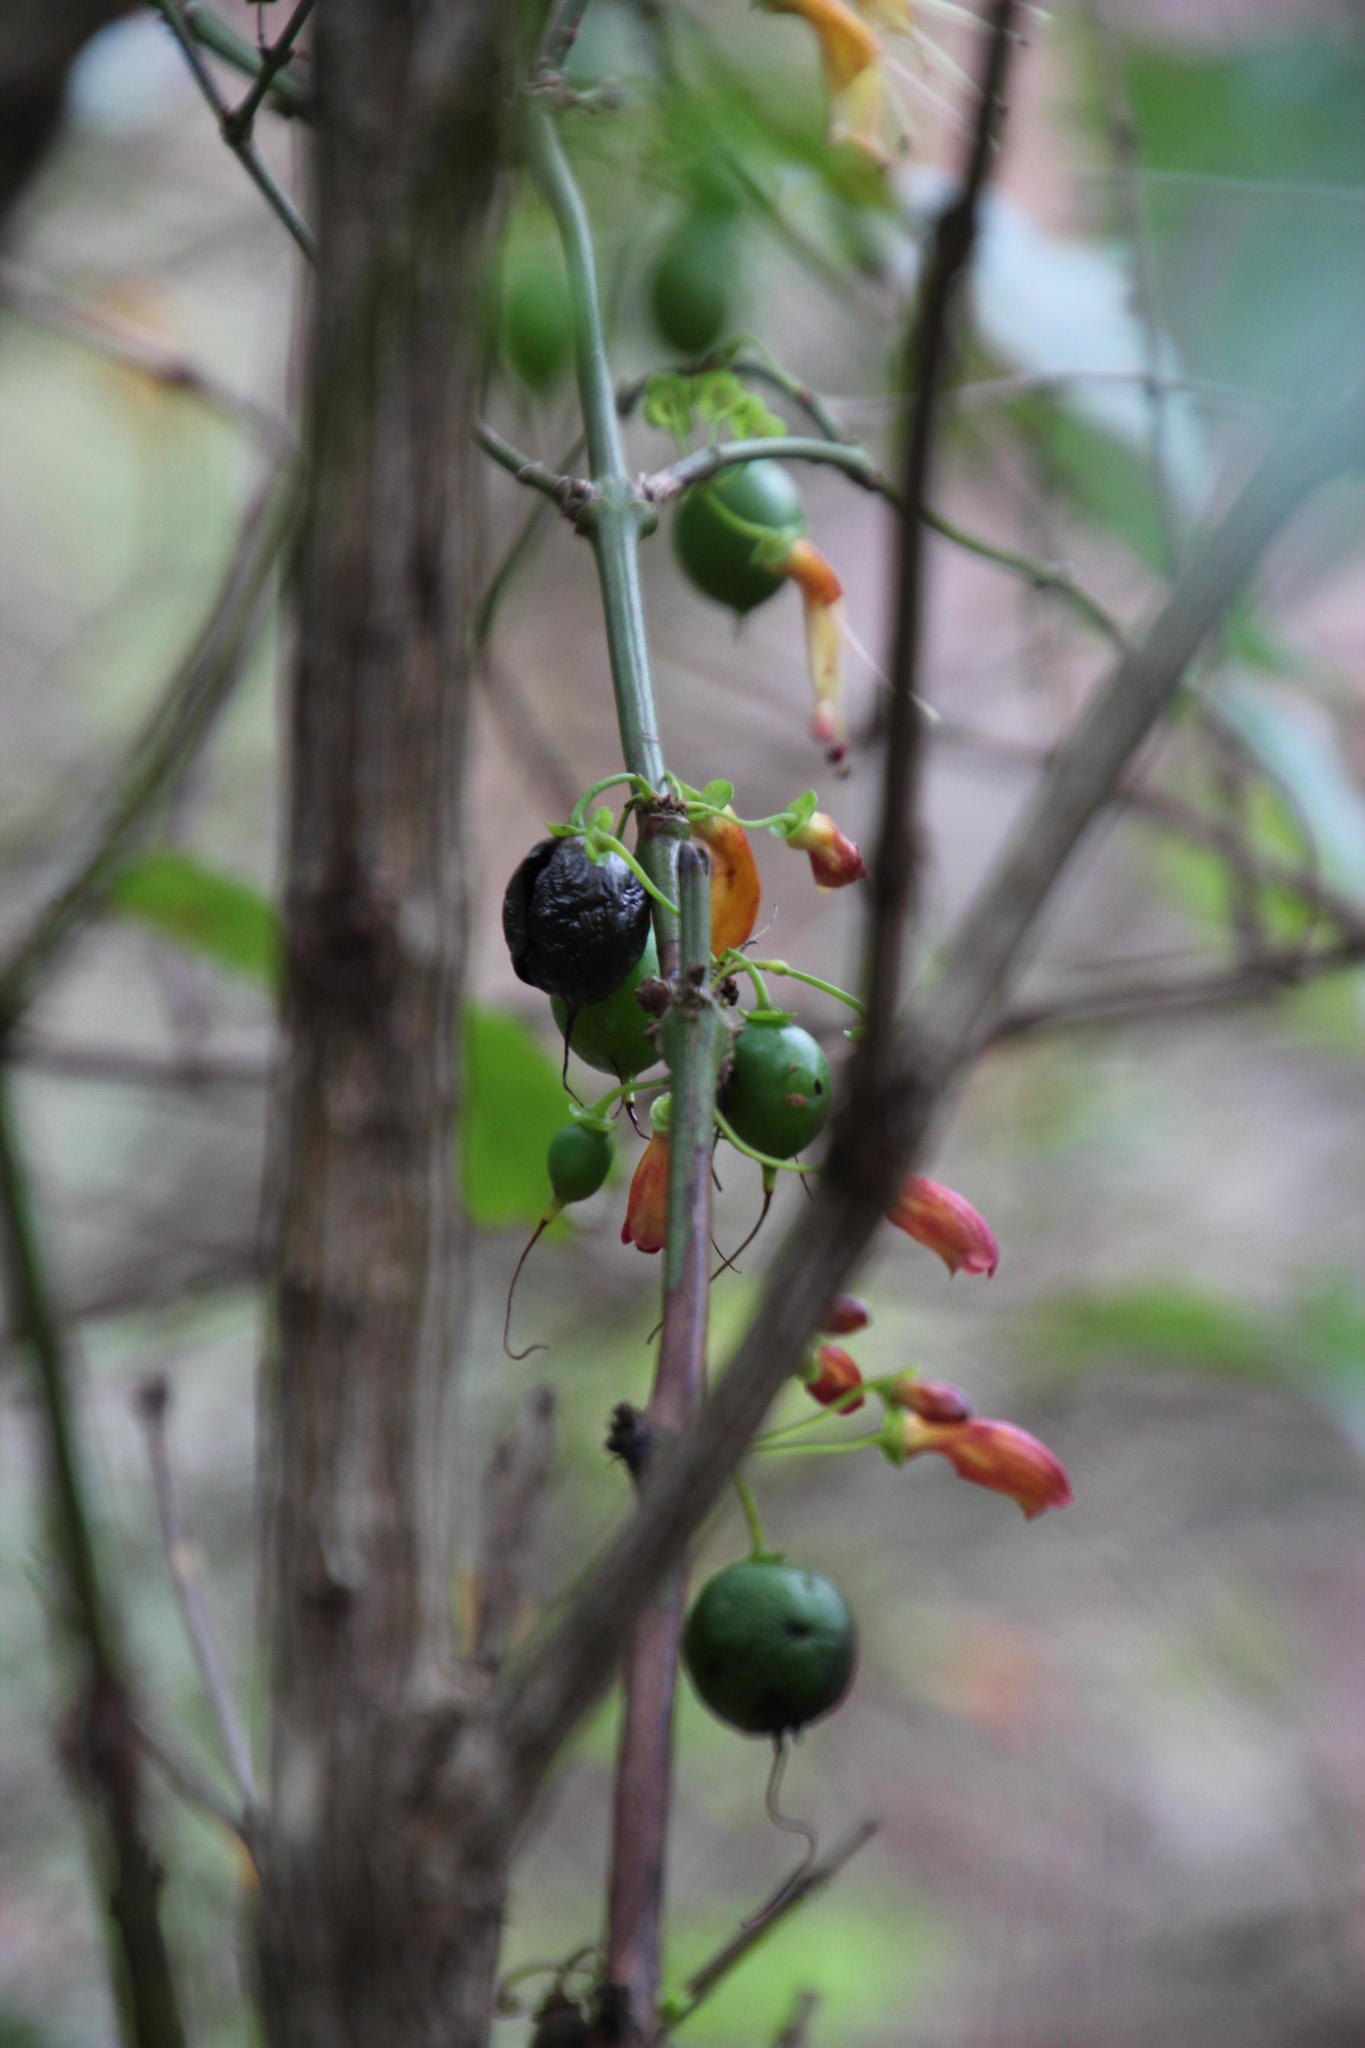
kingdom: Plantae
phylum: Tracheophyta
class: Magnoliopsida
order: Lamiales
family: Stilbaceae
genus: Halleria
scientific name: Halleria lucida
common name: Tree fuschia
